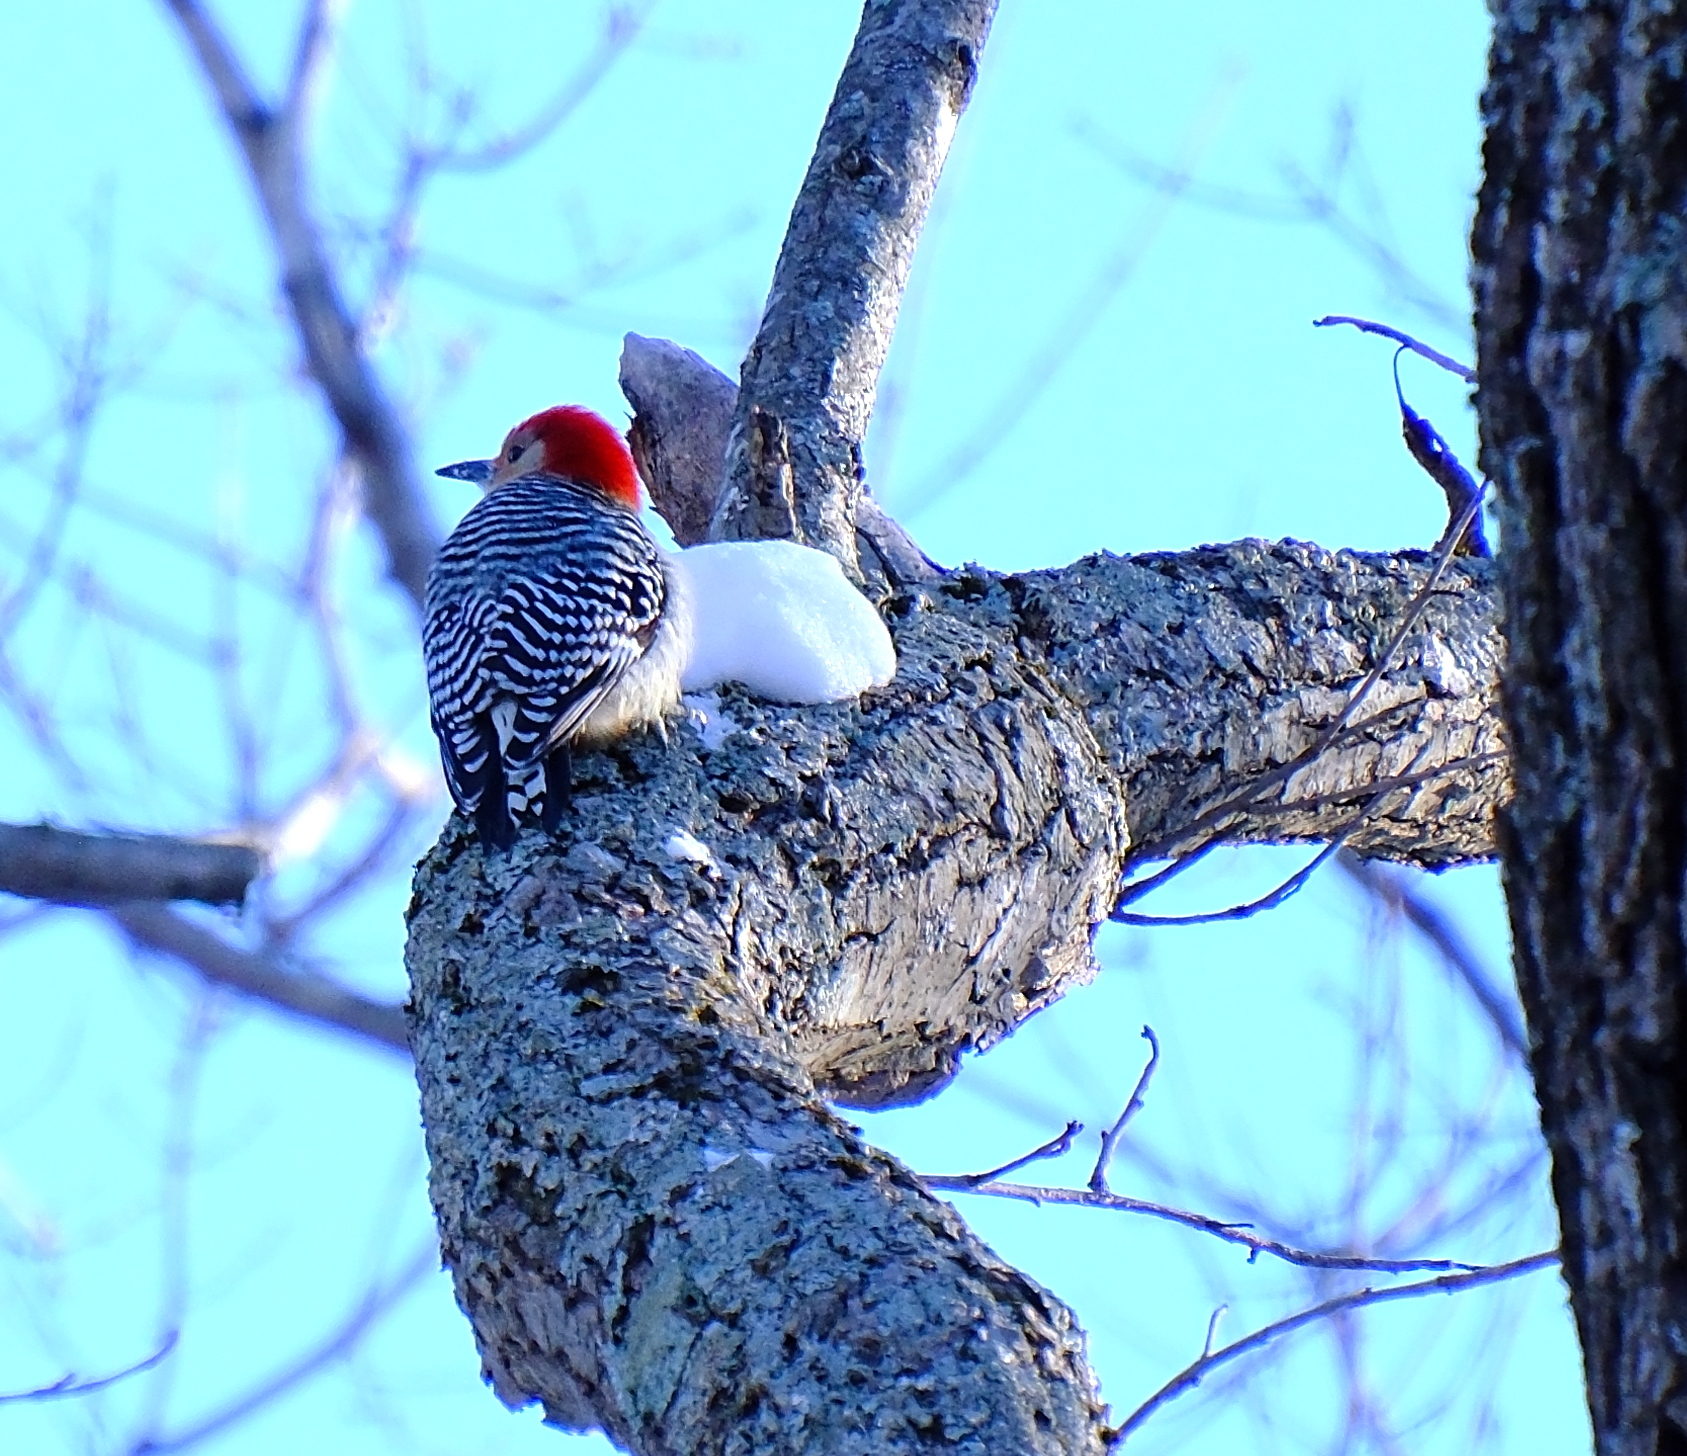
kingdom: Animalia
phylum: Chordata
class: Aves
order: Piciformes
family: Picidae
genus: Melanerpes
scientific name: Melanerpes carolinus
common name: Red-bellied woodpecker
